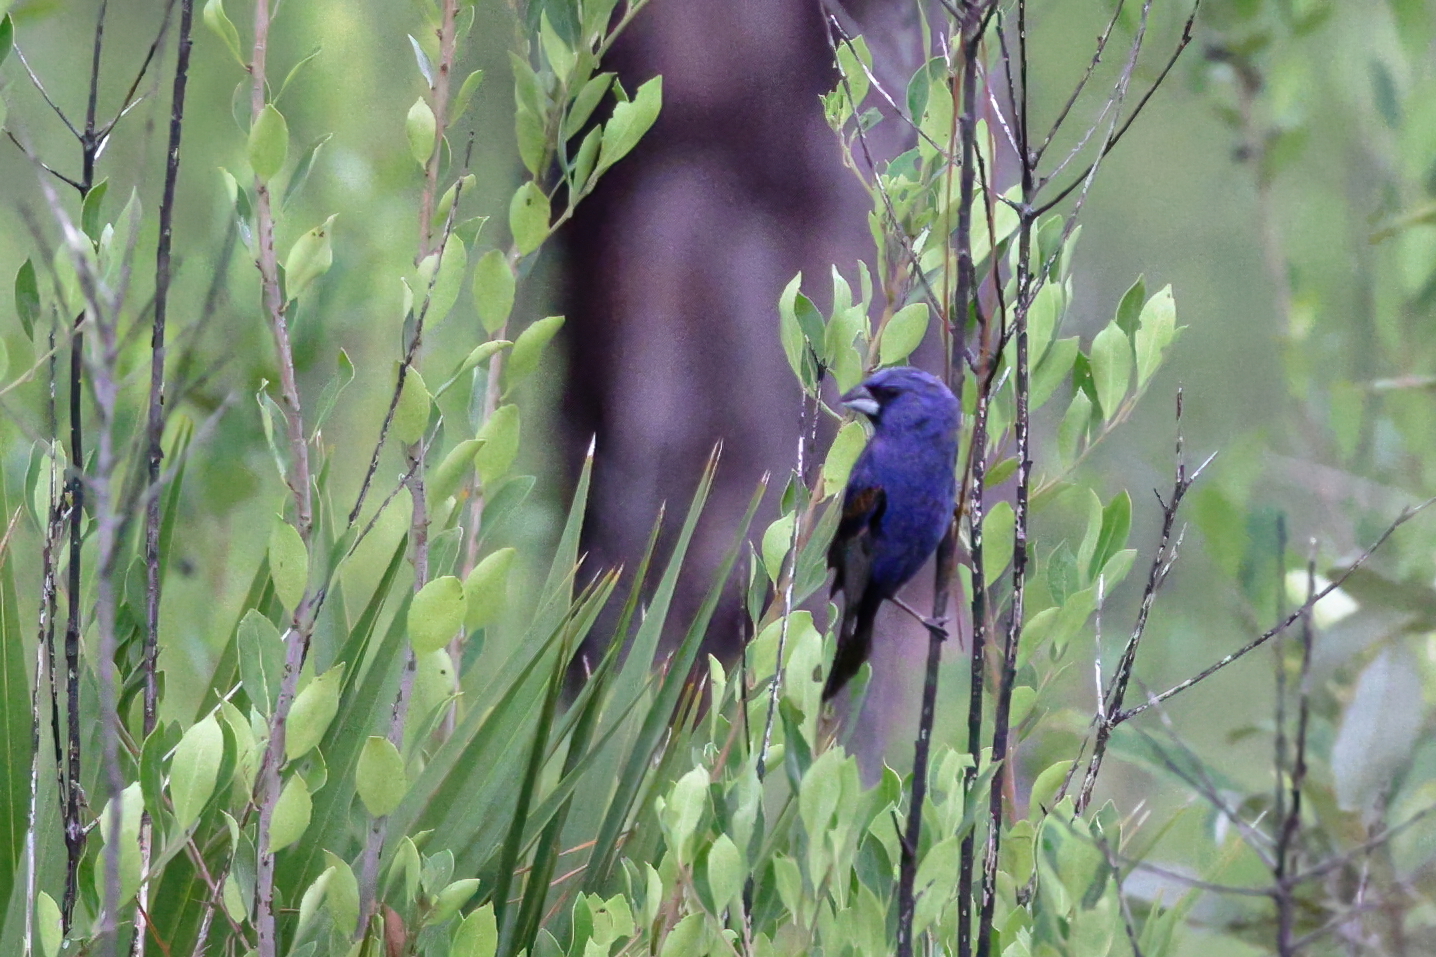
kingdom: Animalia
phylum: Chordata
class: Aves
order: Passeriformes
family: Cardinalidae
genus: Passerina
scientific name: Passerina caerulea
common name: Blue grosbeak
